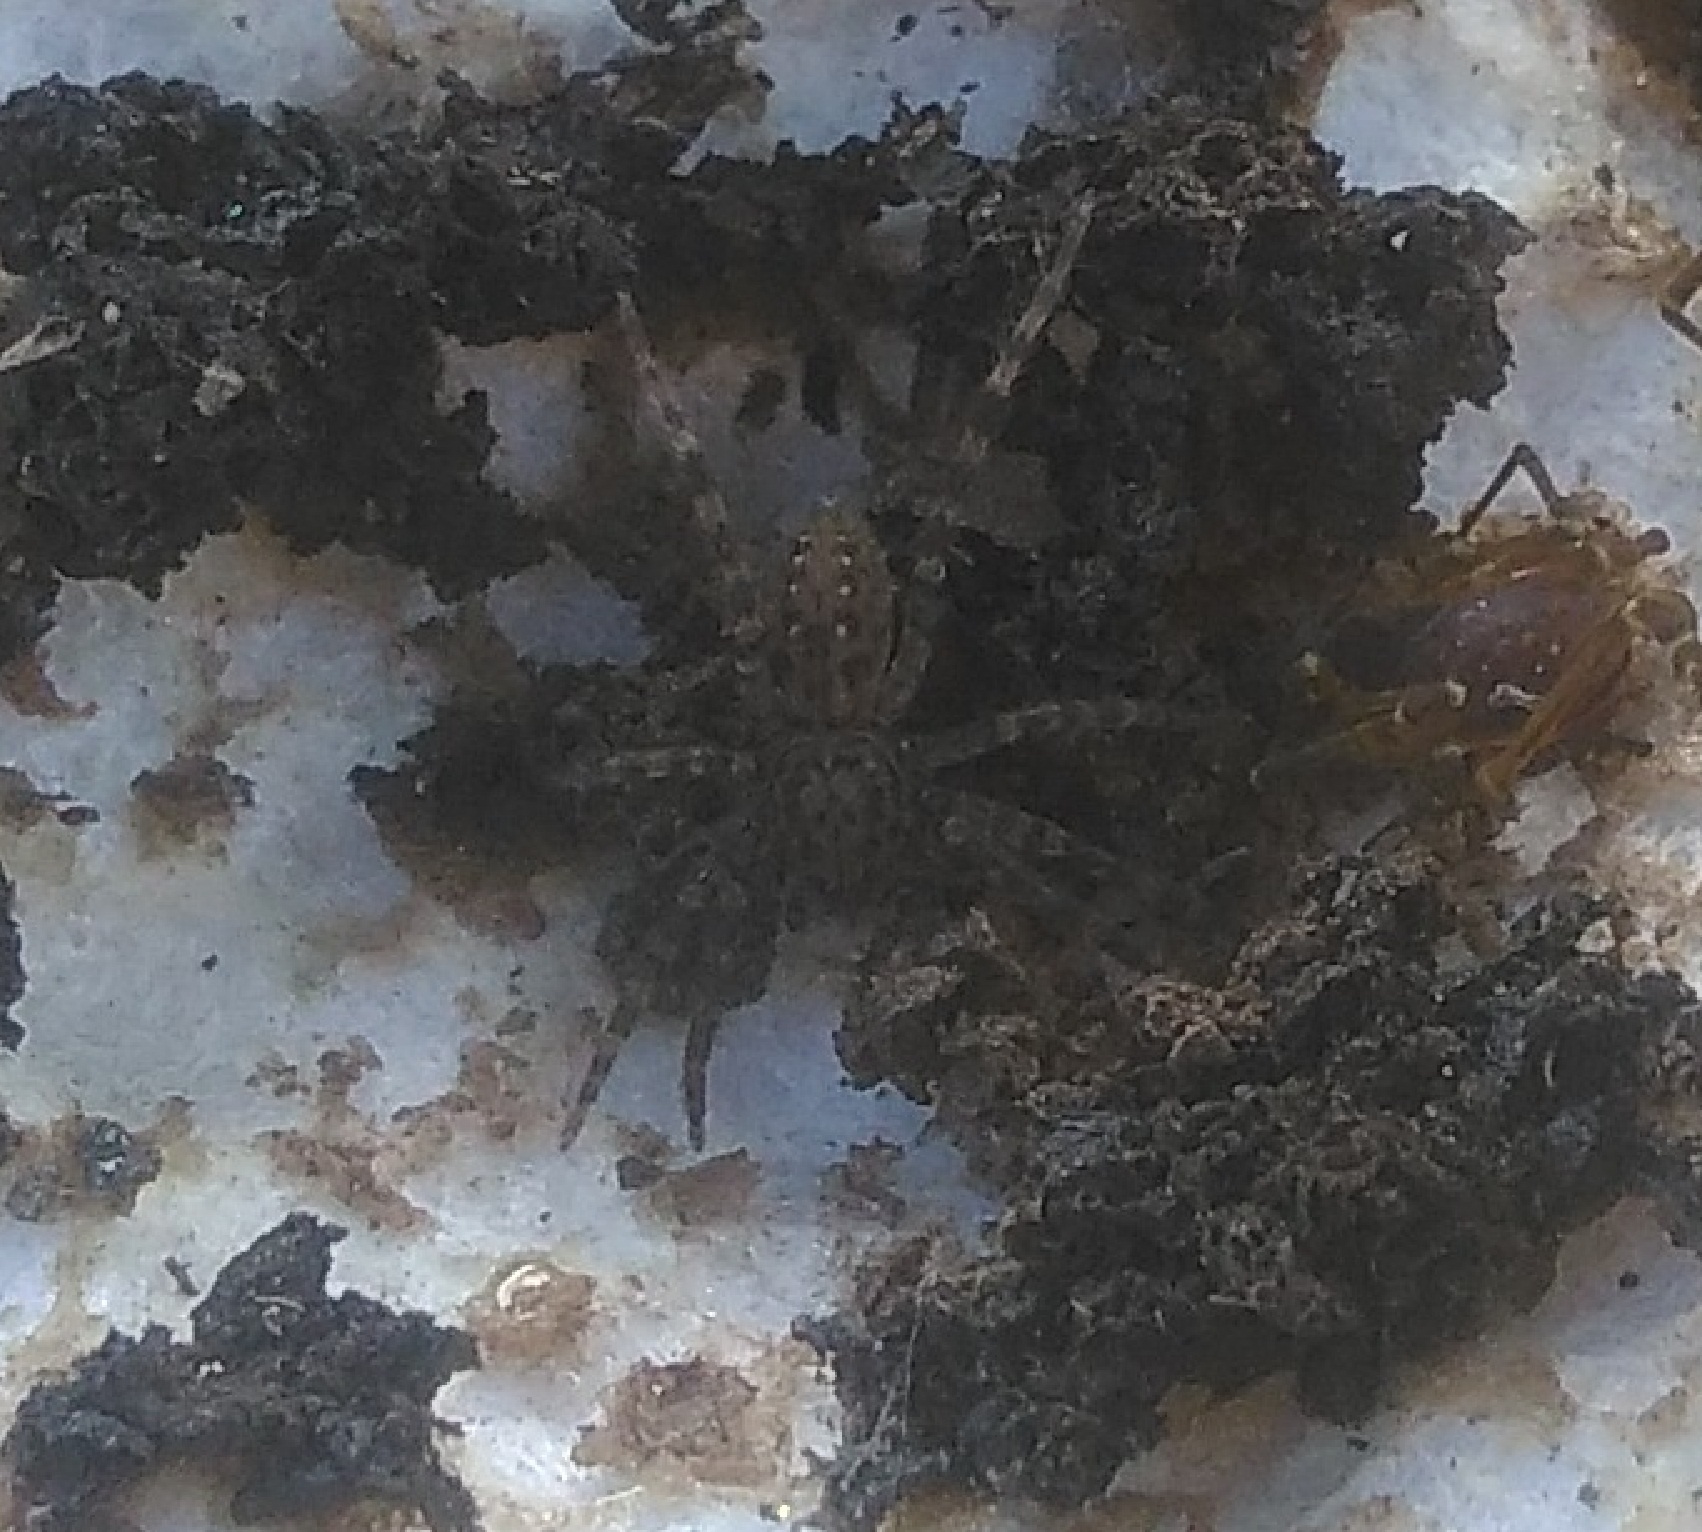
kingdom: Animalia
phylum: Arthropoda
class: Arachnida
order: Araneae
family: Ctenidae
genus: Asthenoctenus
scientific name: Asthenoctenus borellii
